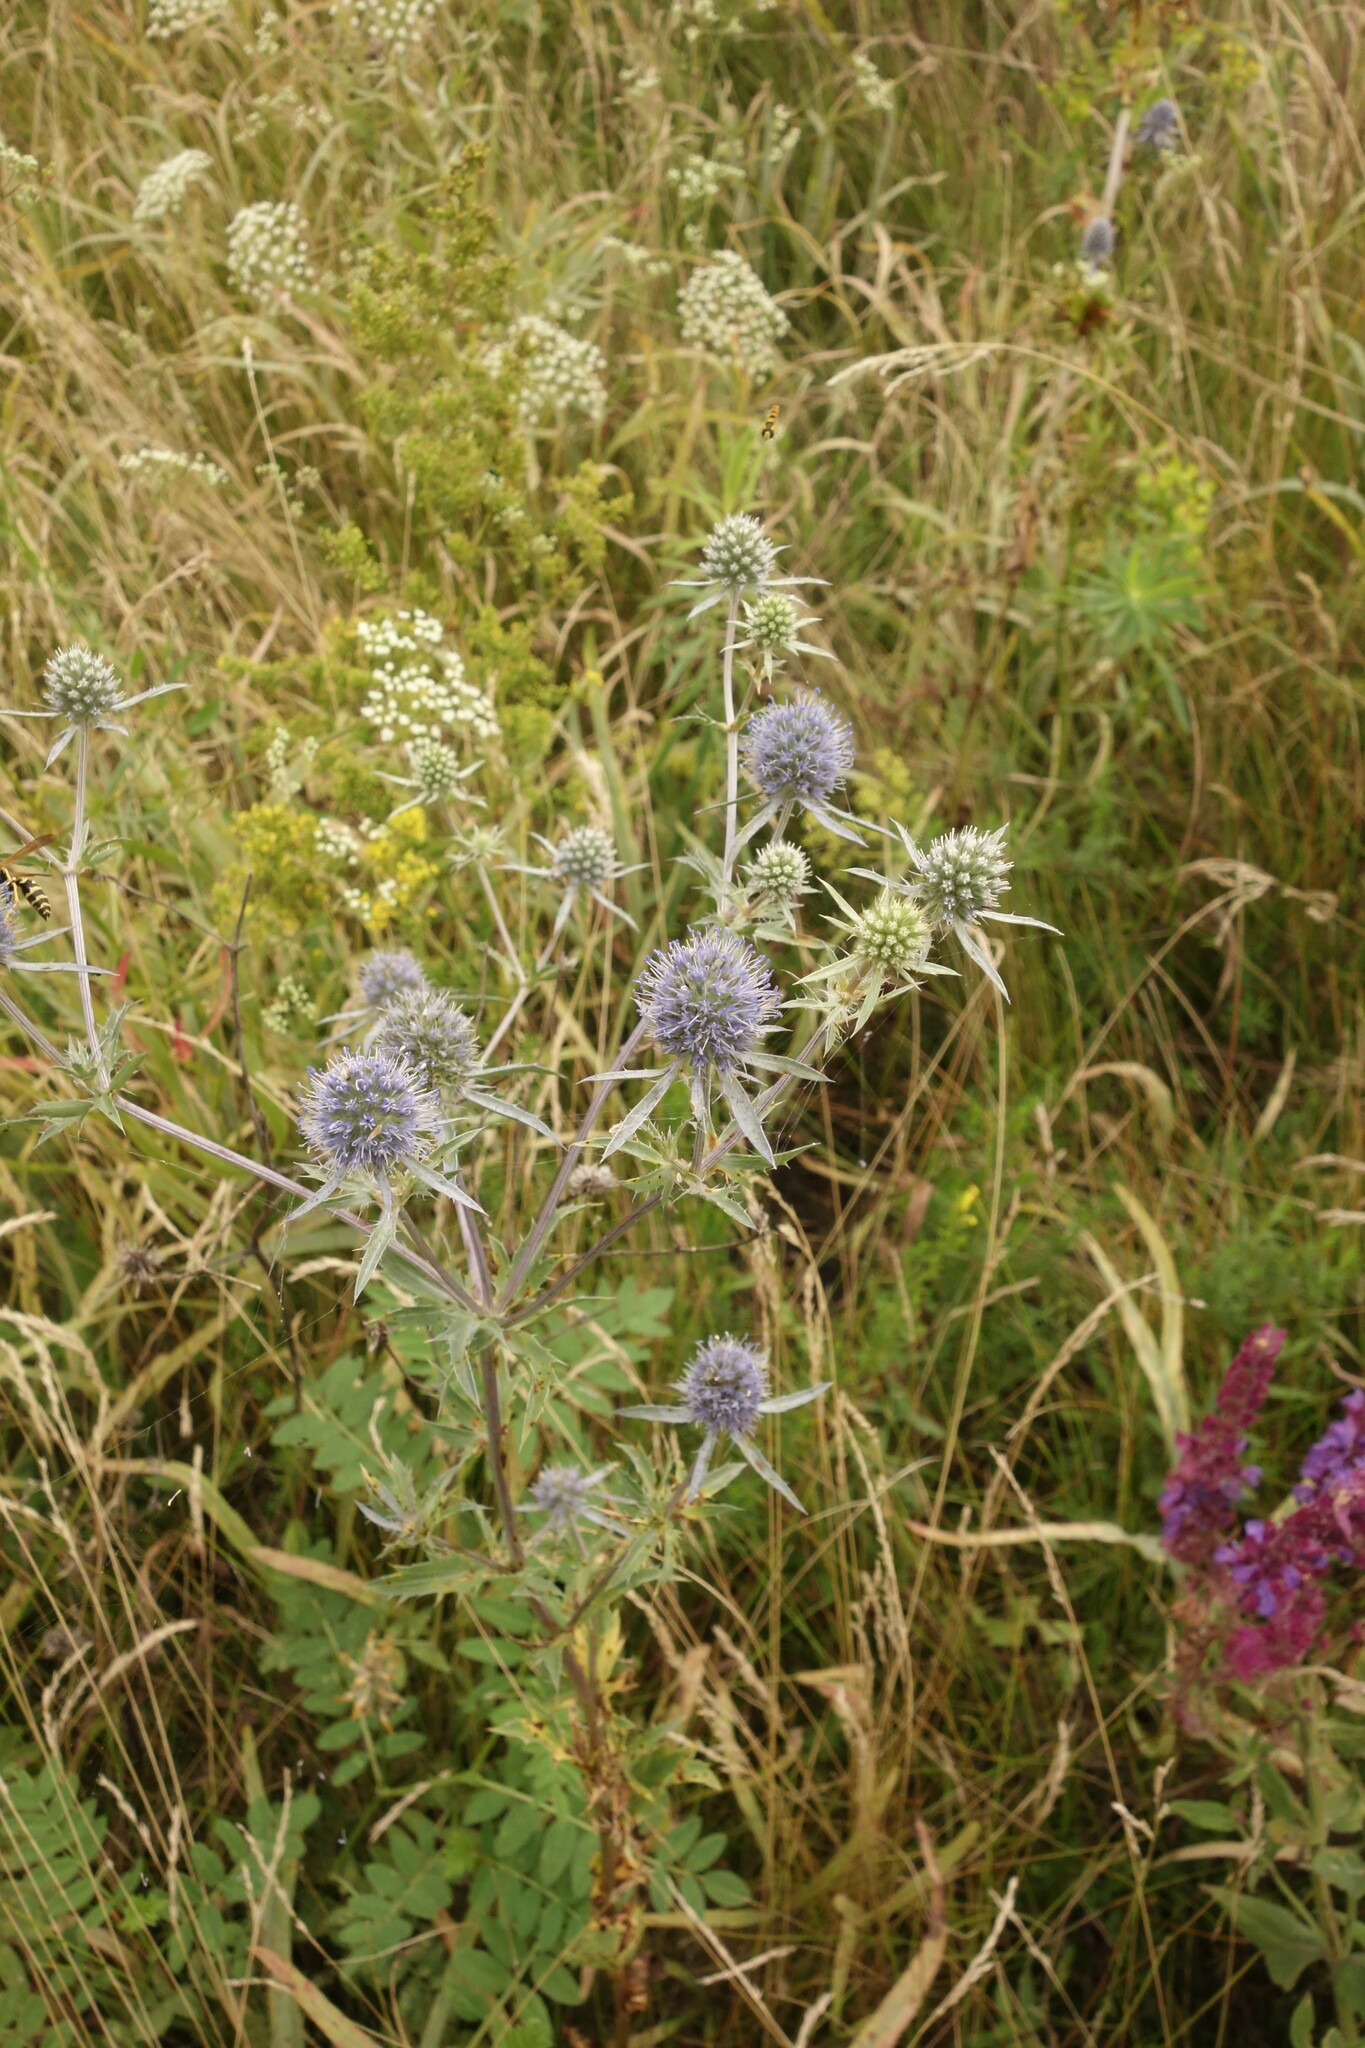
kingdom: Plantae
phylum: Tracheophyta
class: Magnoliopsida
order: Apiales
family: Apiaceae
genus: Eryngium
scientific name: Eryngium planum
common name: Blue eryngo
